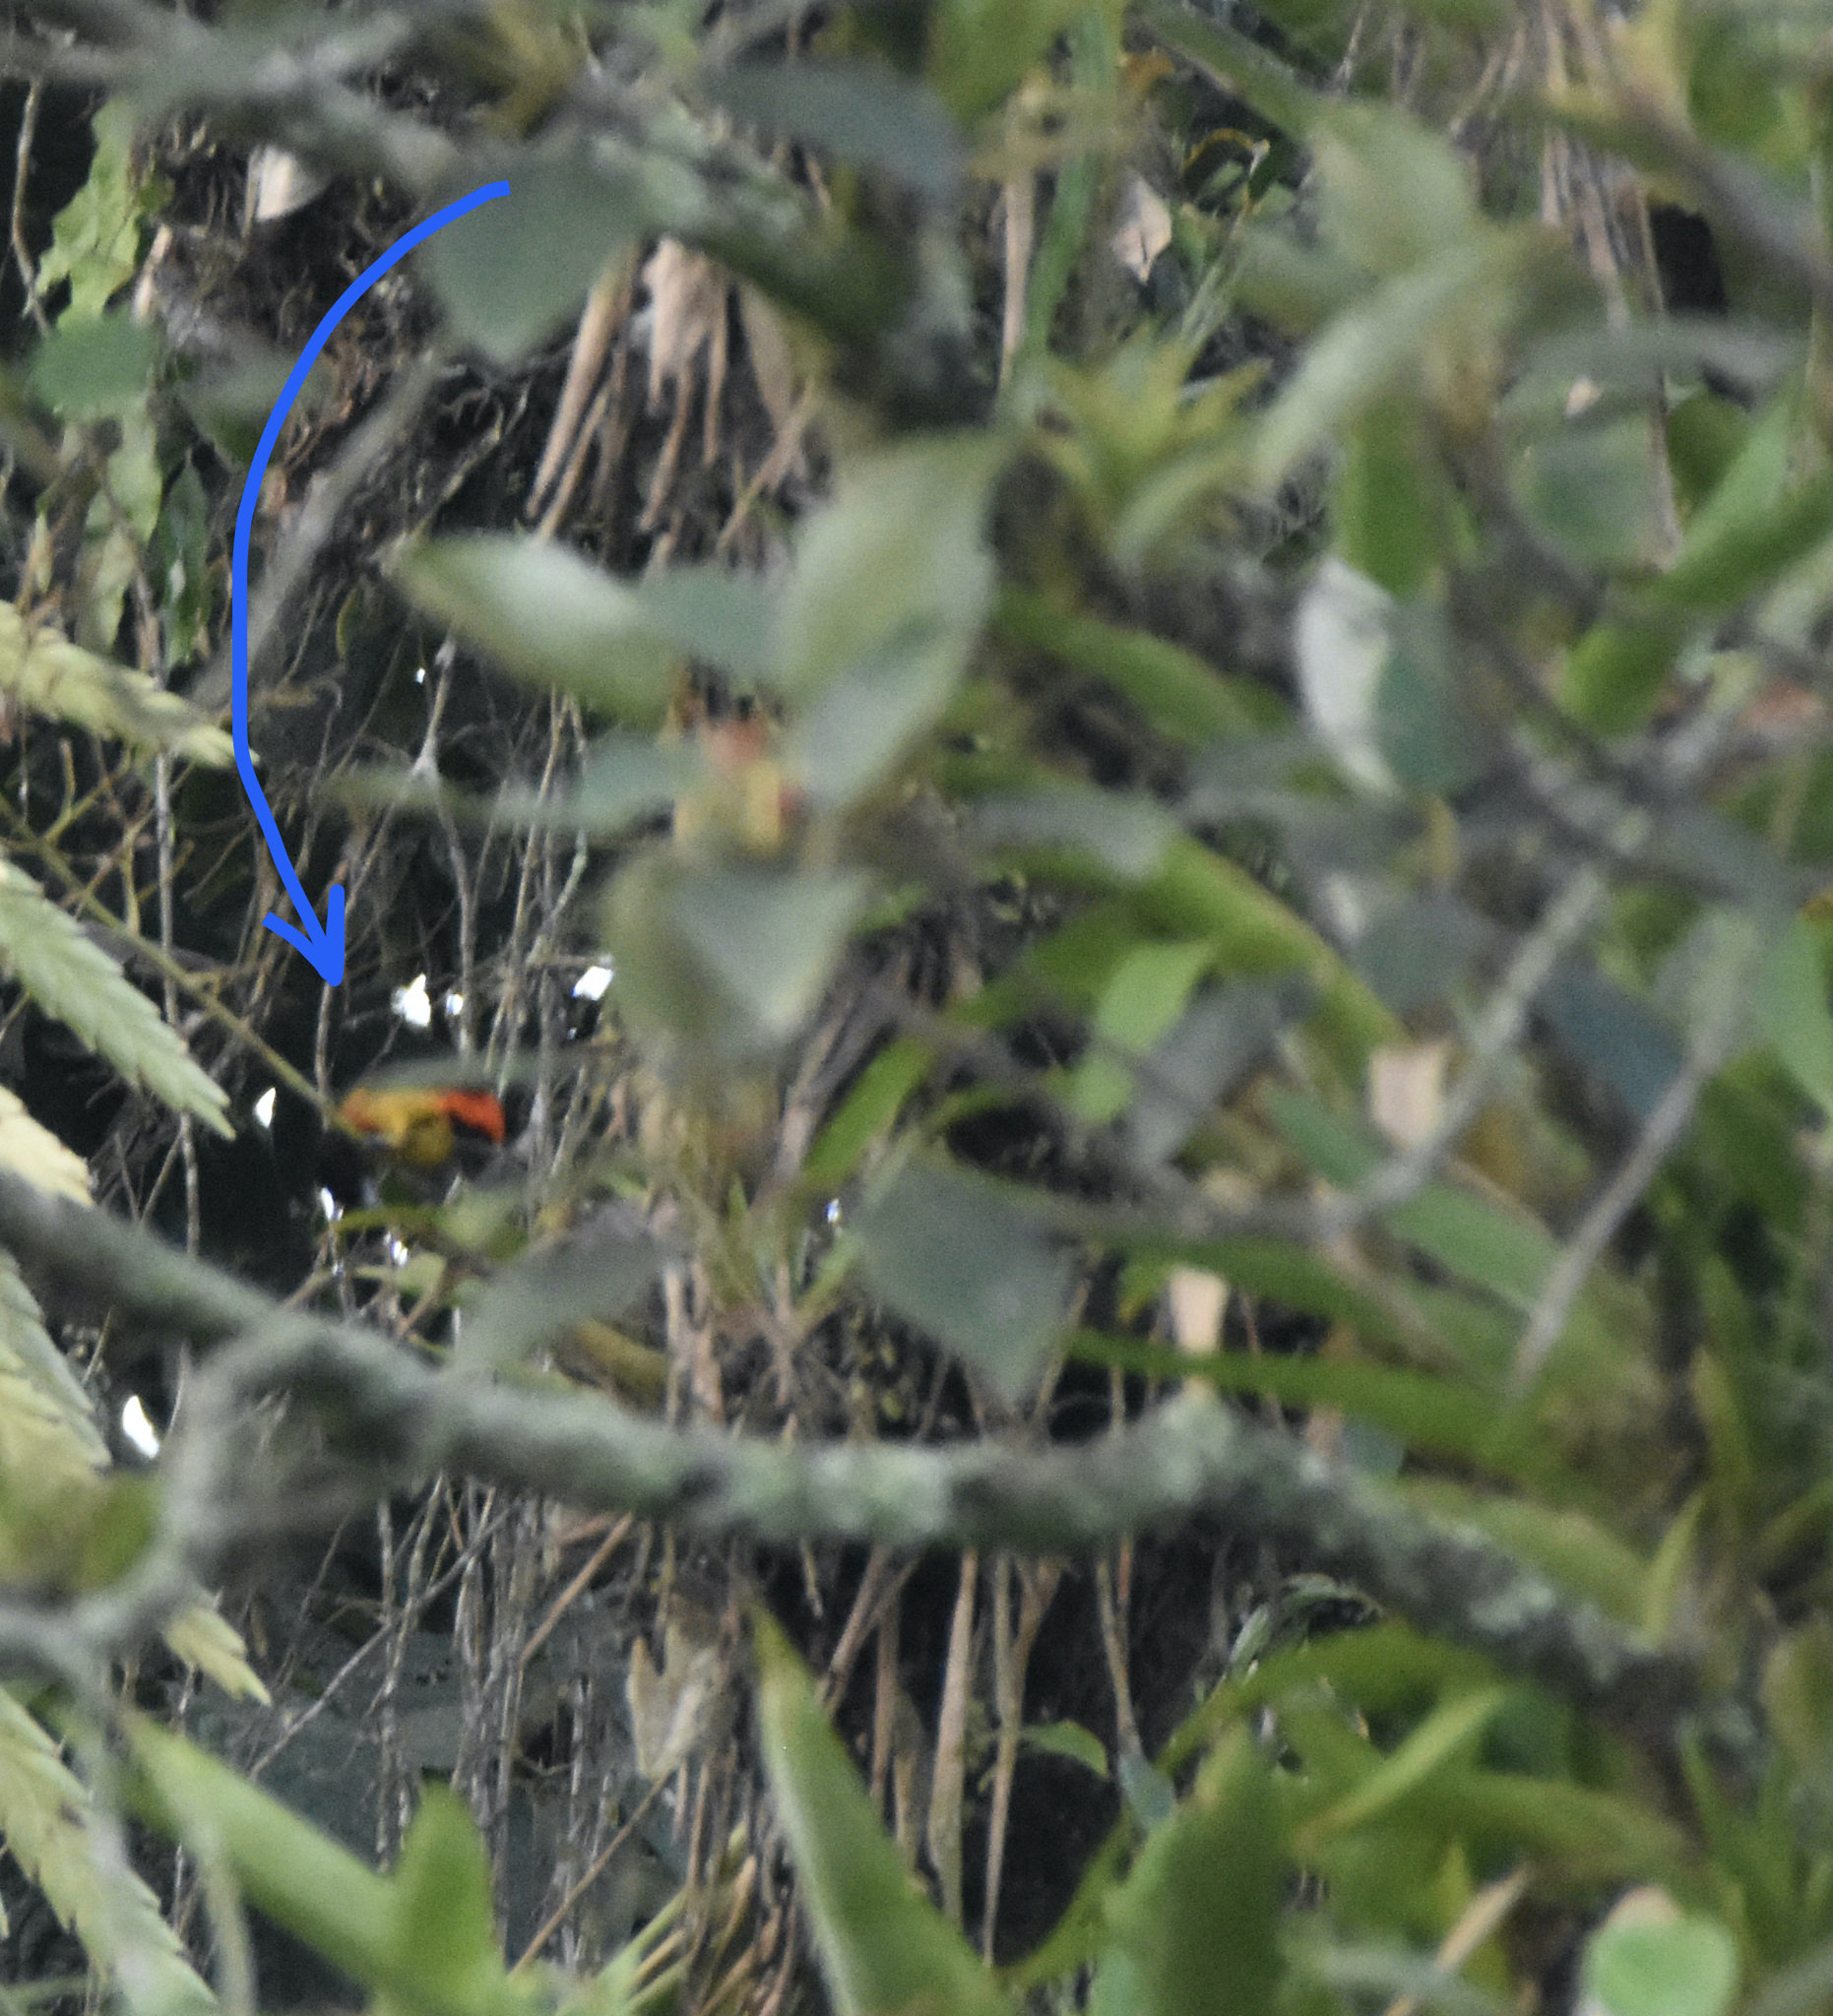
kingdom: Animalia
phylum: Chordata
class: Aves
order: Passeriformes
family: Thraupidae
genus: Ramphocelus
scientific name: Ramphocelus flammigerus
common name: Flame-rumped tanager
